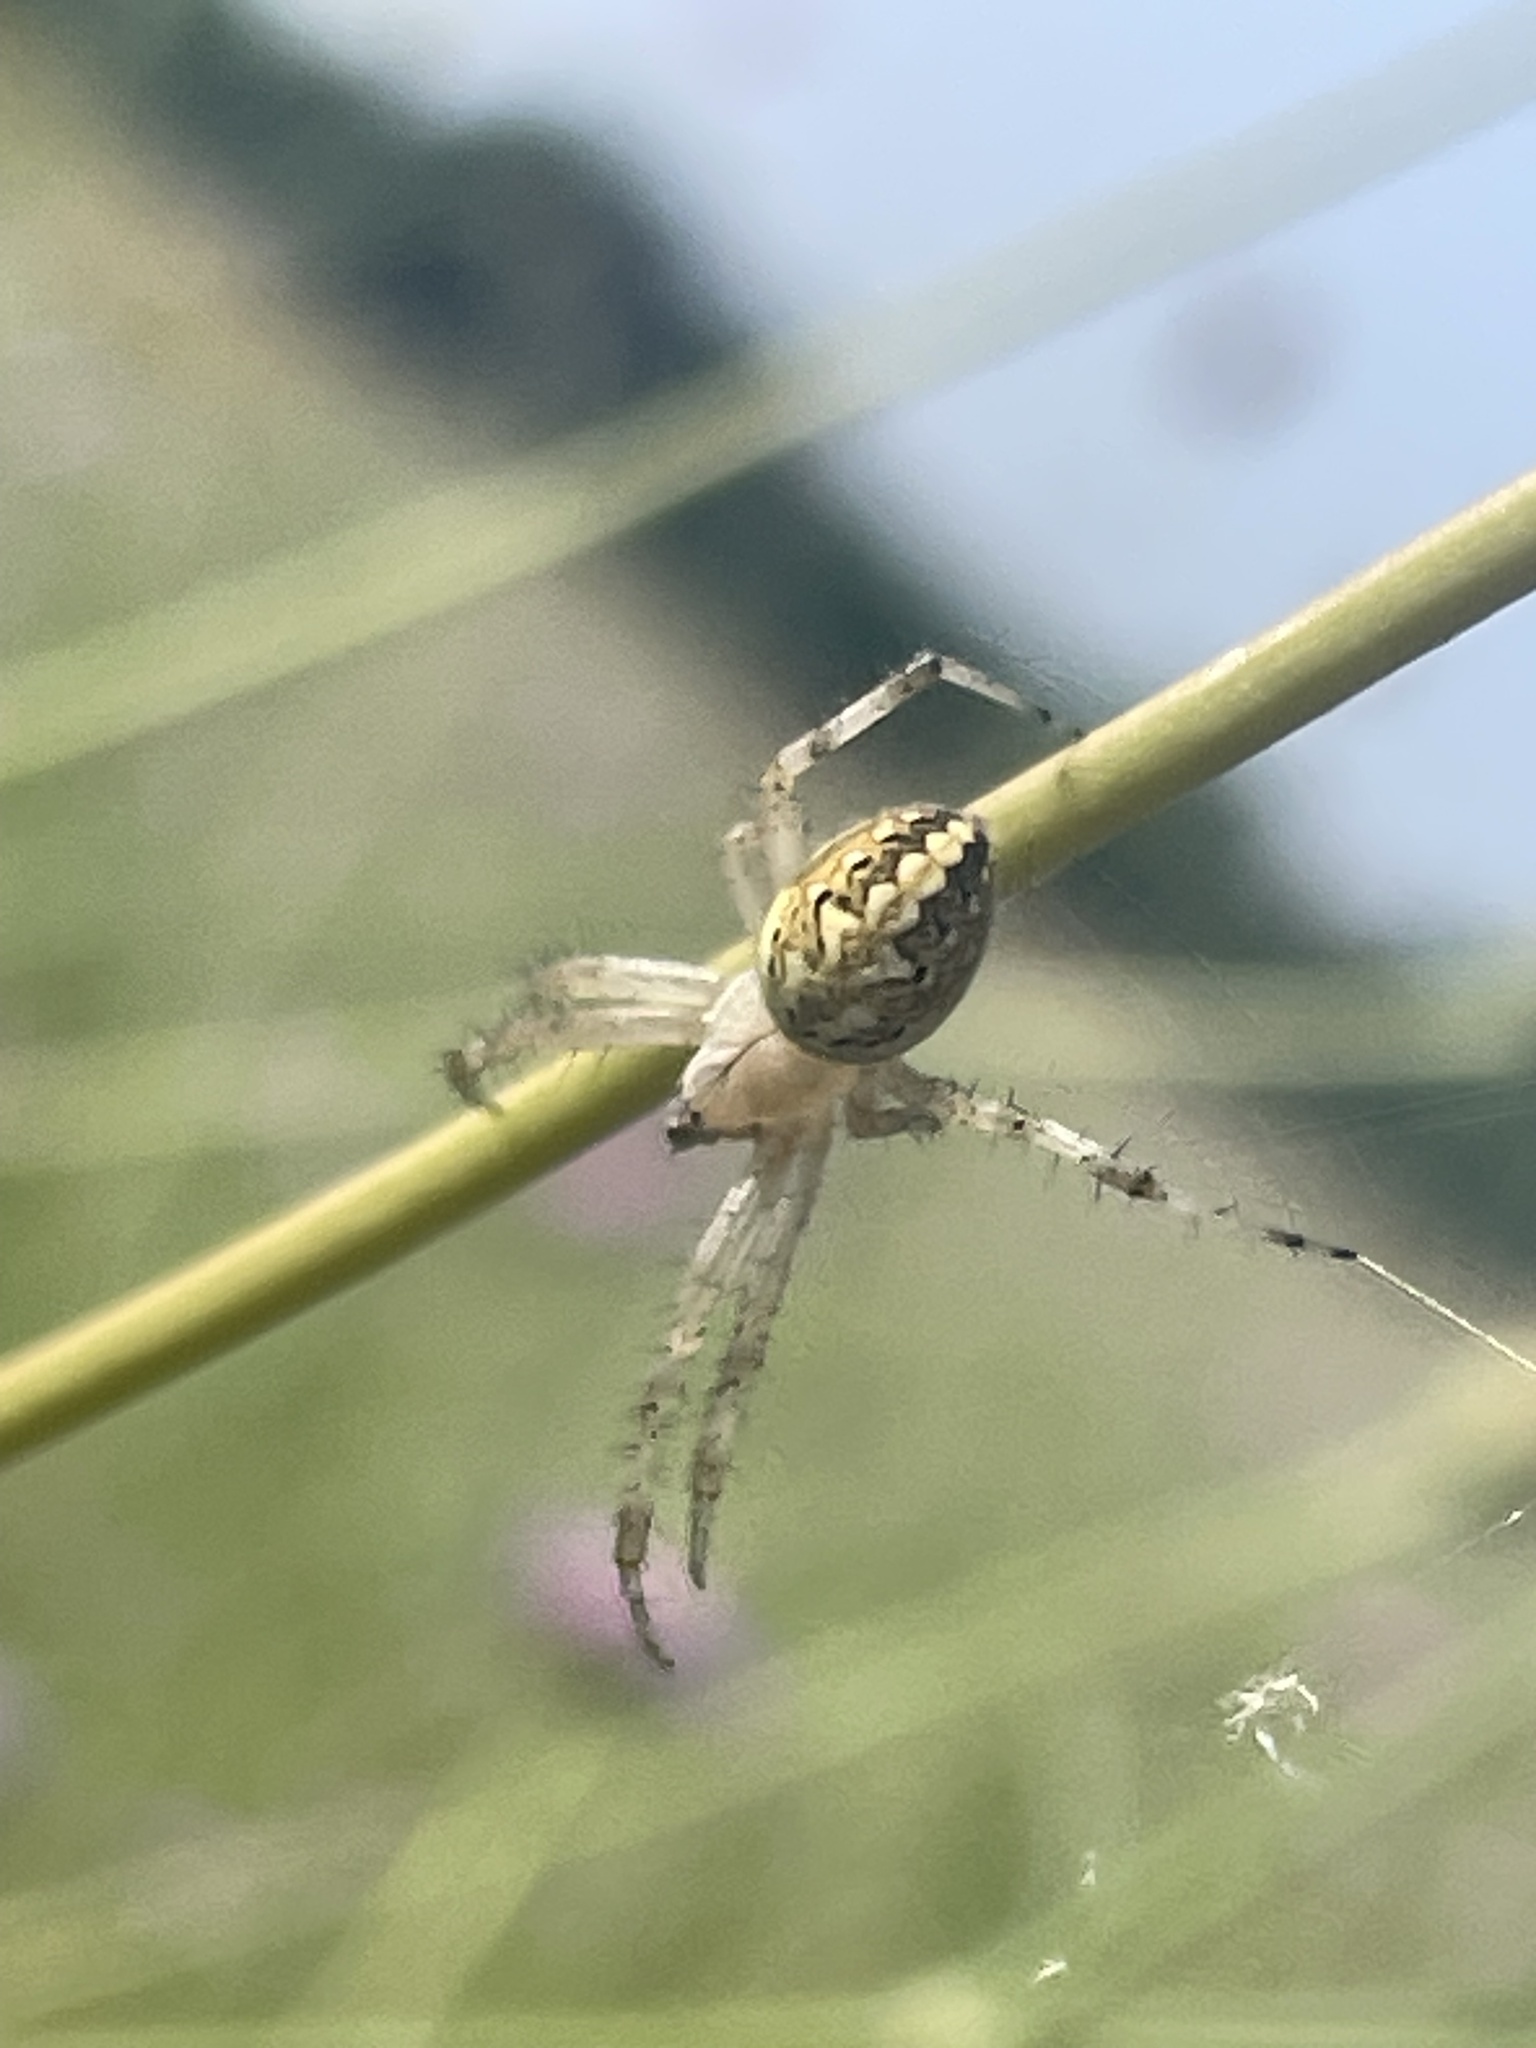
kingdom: Animalia
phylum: Arthropoda
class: Arachnida
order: Araneae
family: Araneidae
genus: Neoscona
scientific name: Neoscona oaxacensis
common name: Orb weavers
